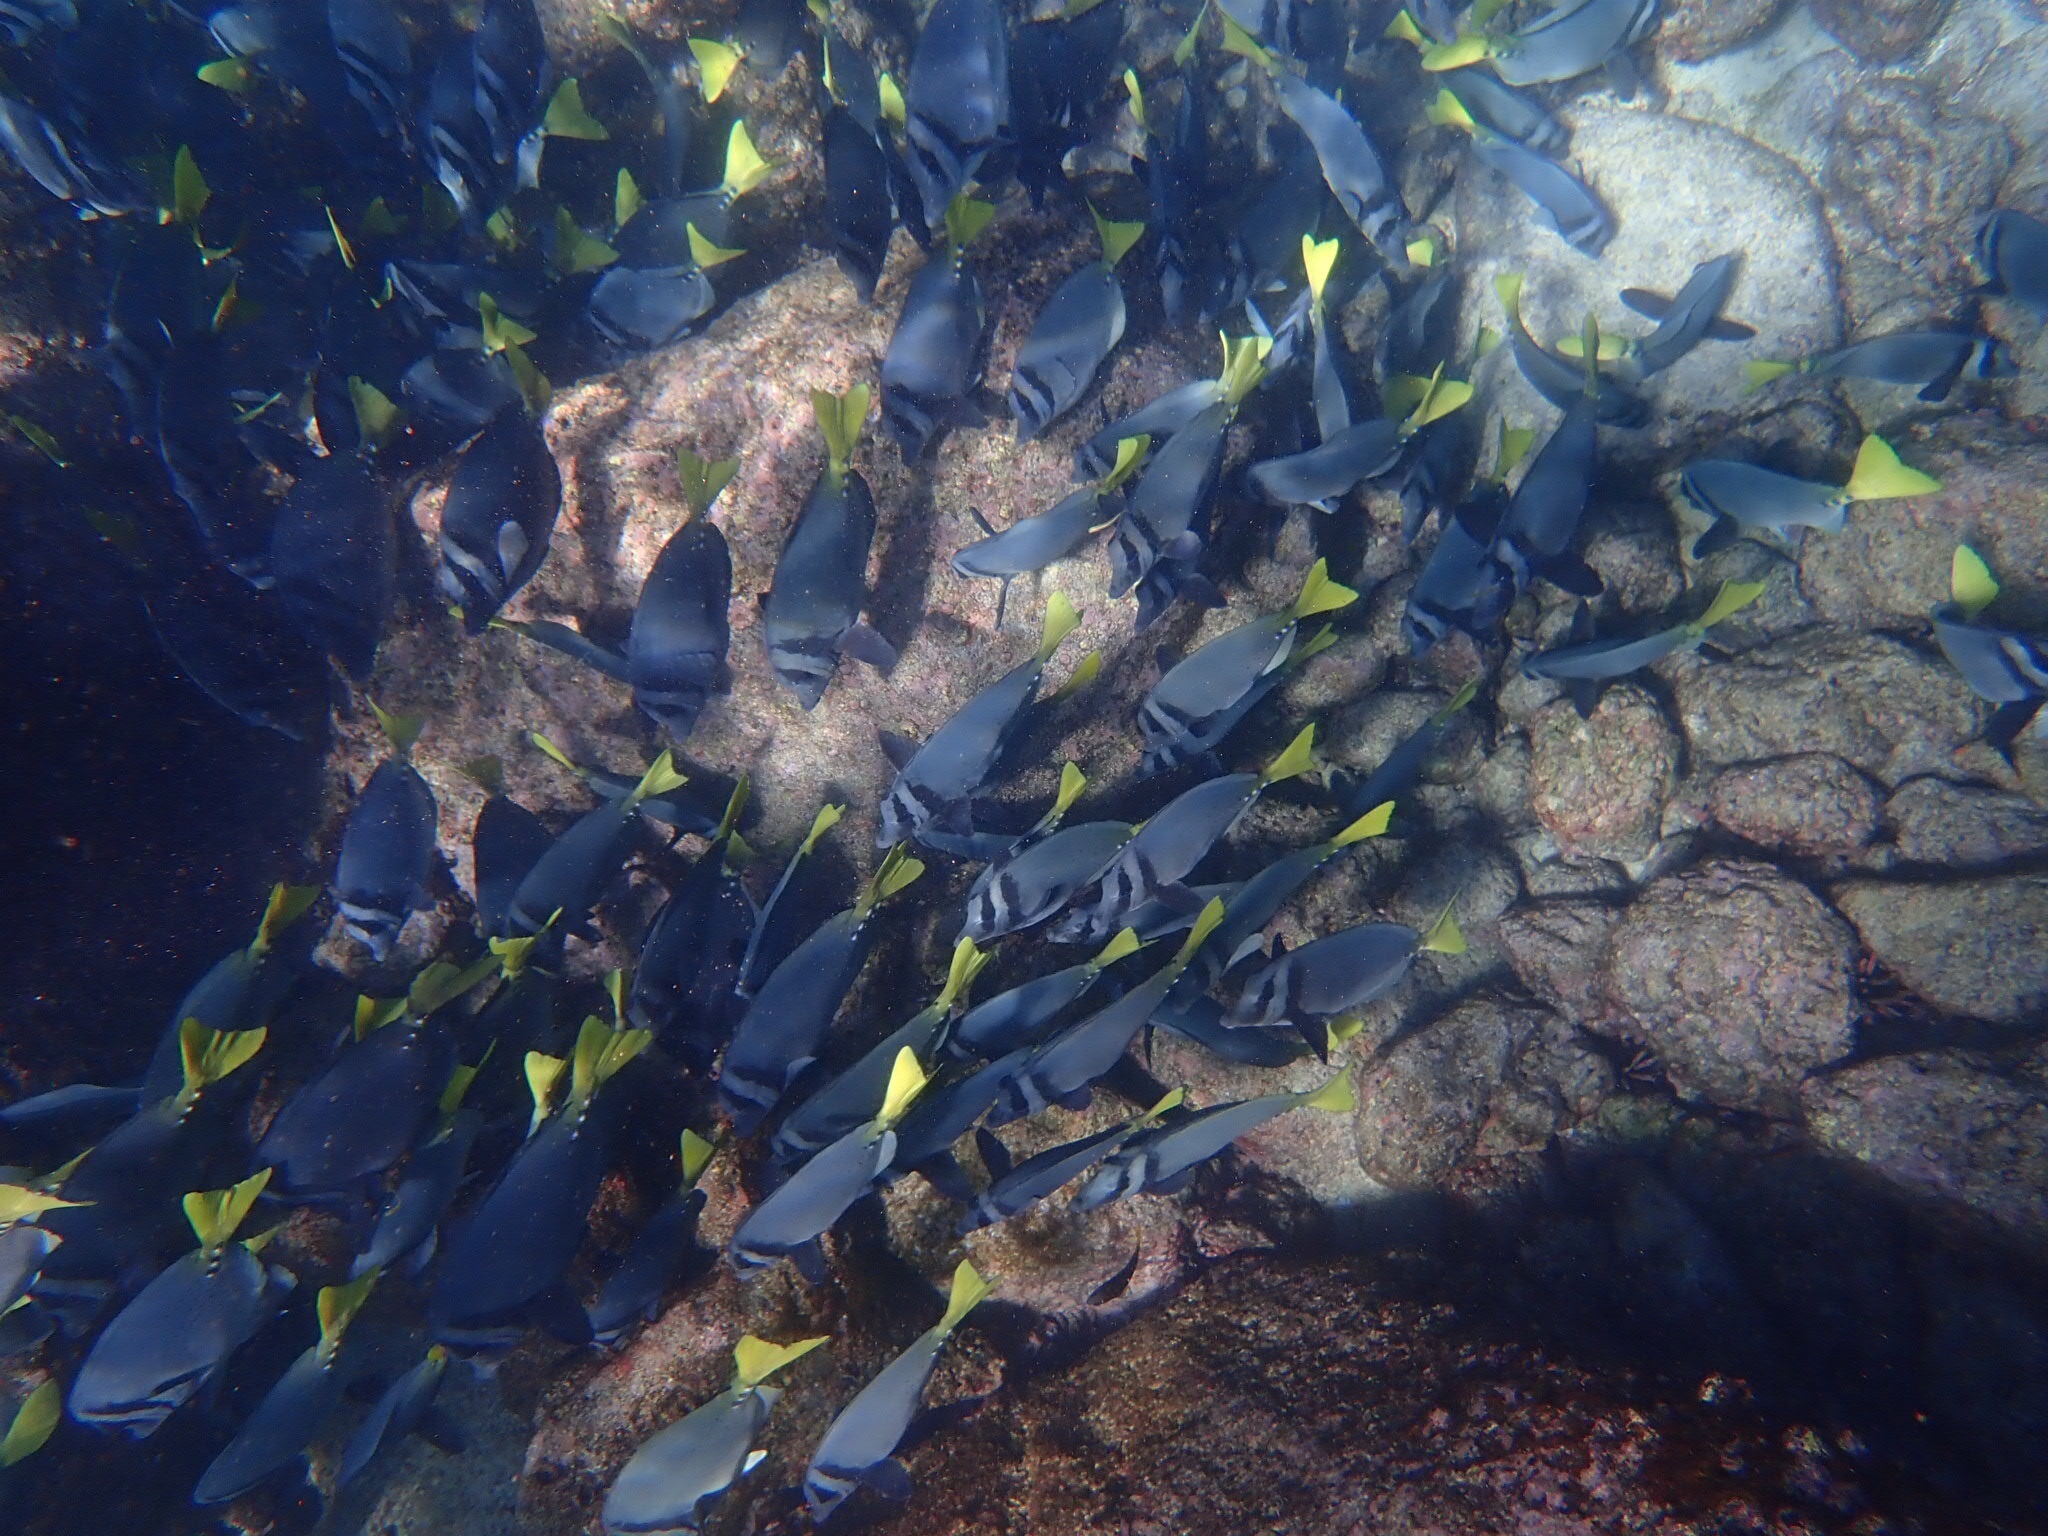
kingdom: Animalia
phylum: Chordata
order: Perciformes
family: Acanthuridae
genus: Prionurus
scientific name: Prionurus laticlavius
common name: Razor surgeonfish
